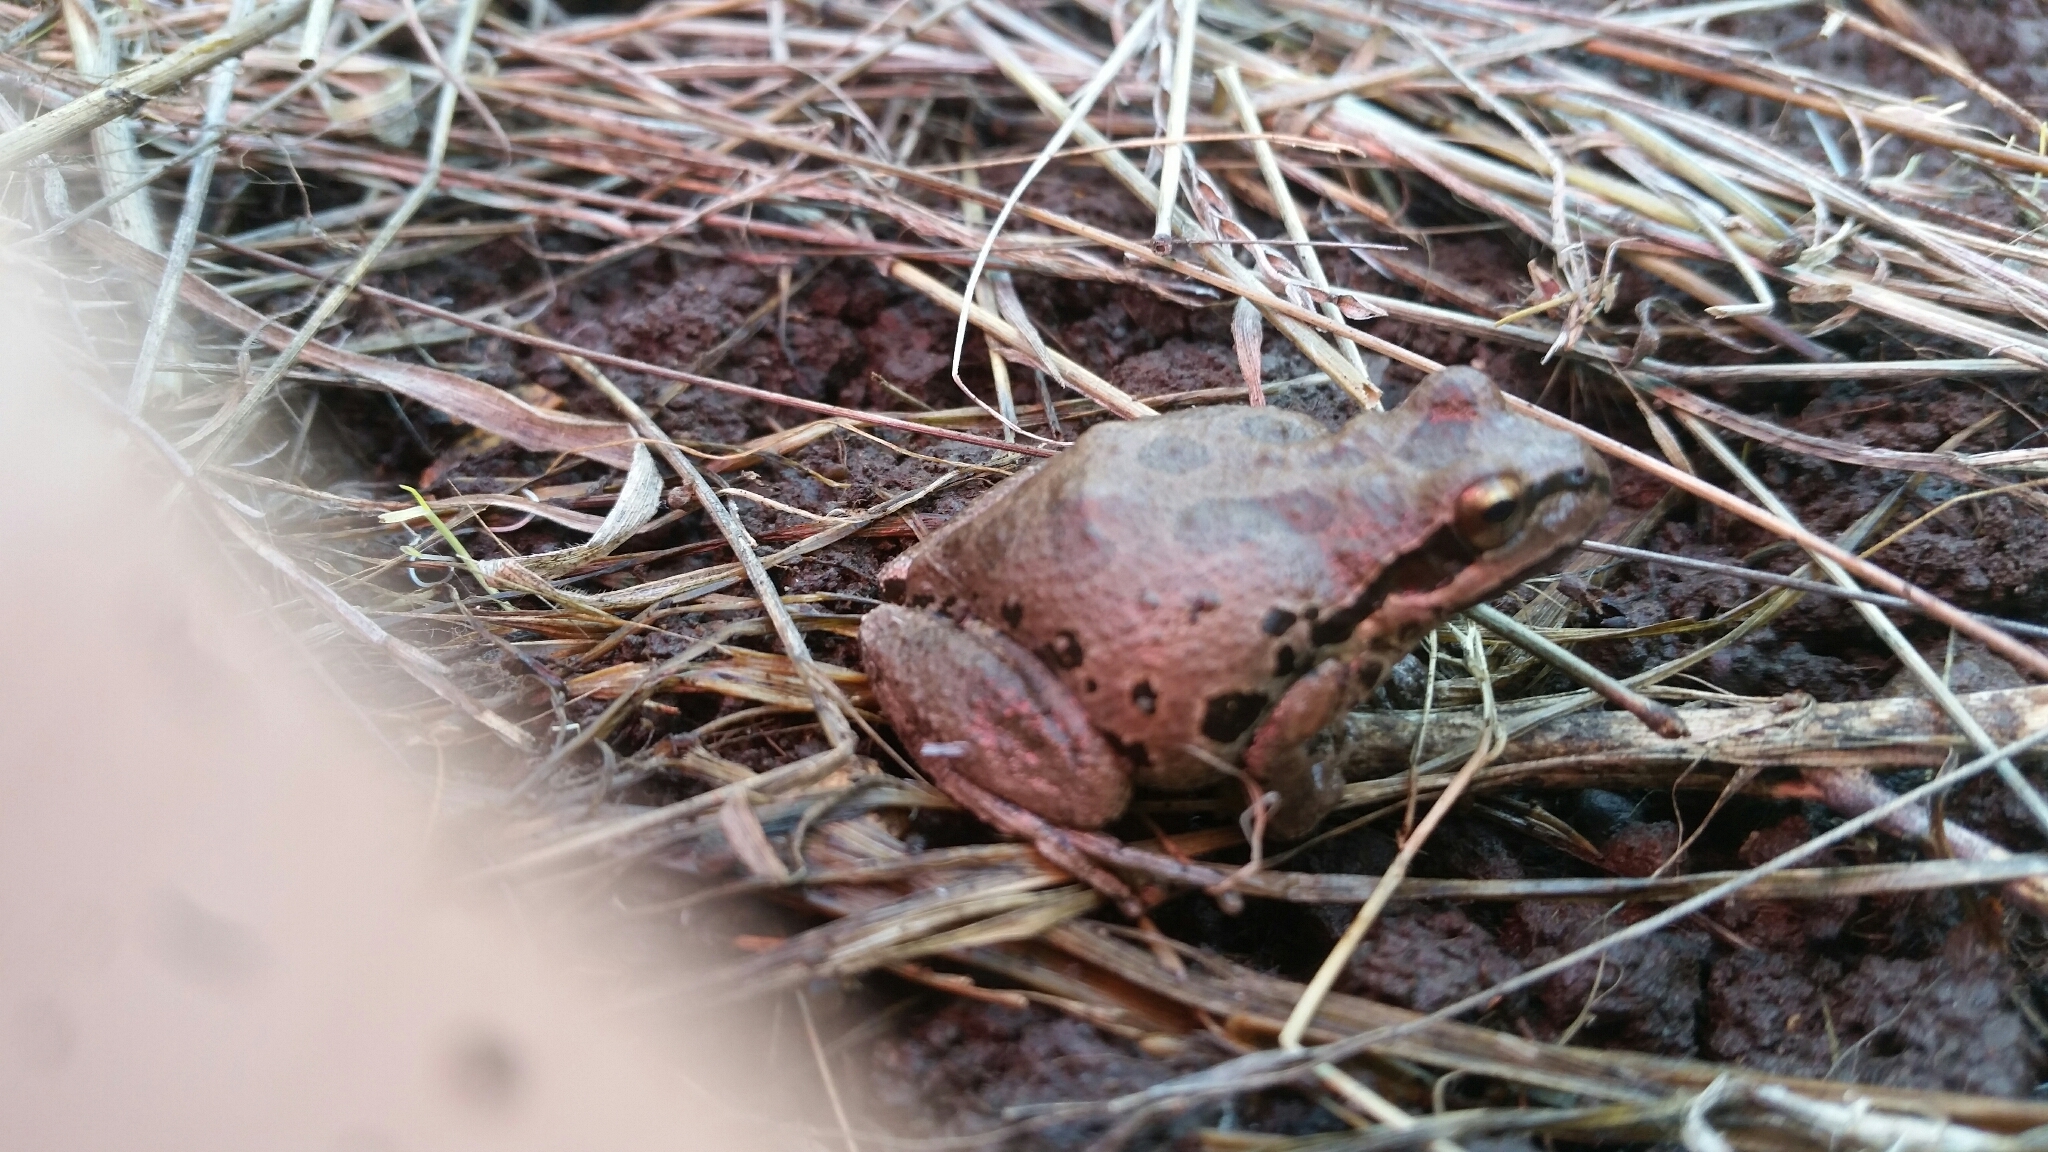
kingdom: Animalia
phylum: Chordata
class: Amphibia
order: Anura
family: Hylidae
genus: Pseudacris
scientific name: Pseudacris regilla
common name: Pacific chorus frog
